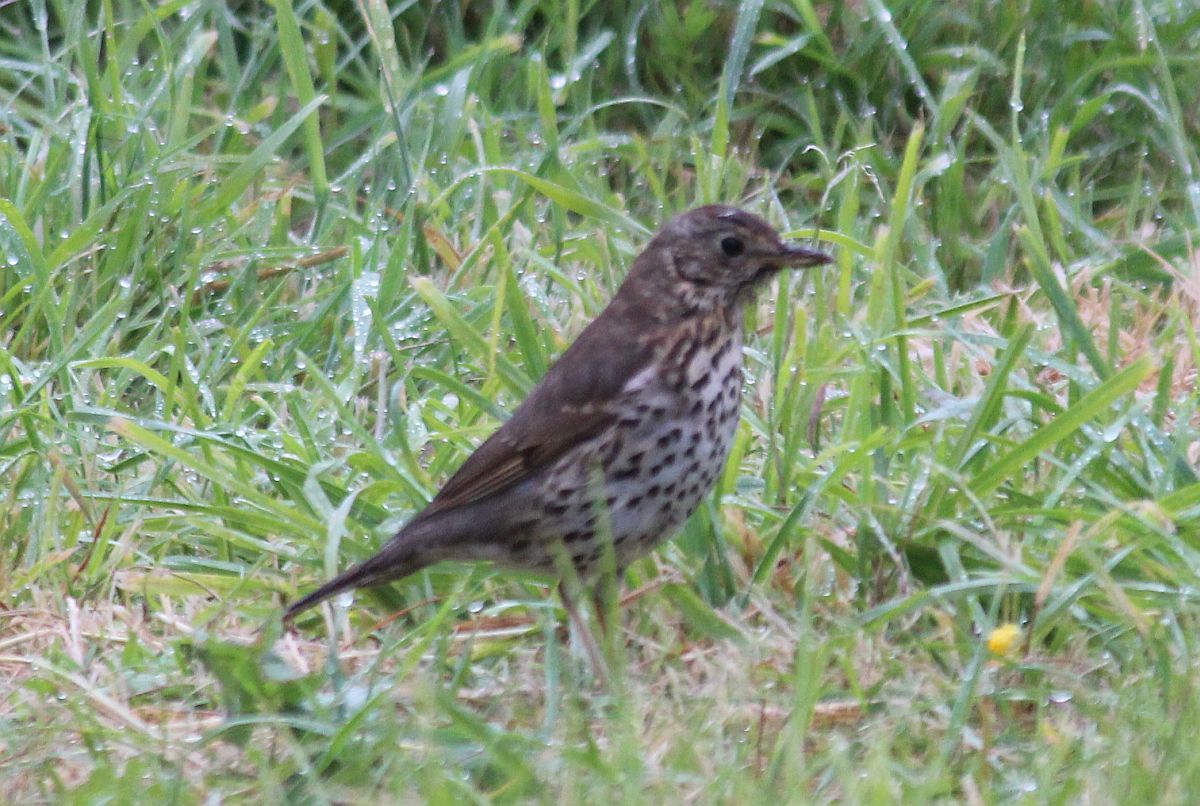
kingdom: Animalia
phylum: Chordata
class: Aves
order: Passeriformes
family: Turdidae
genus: Turdus
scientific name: Turdus philomelos
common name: Song thrush
